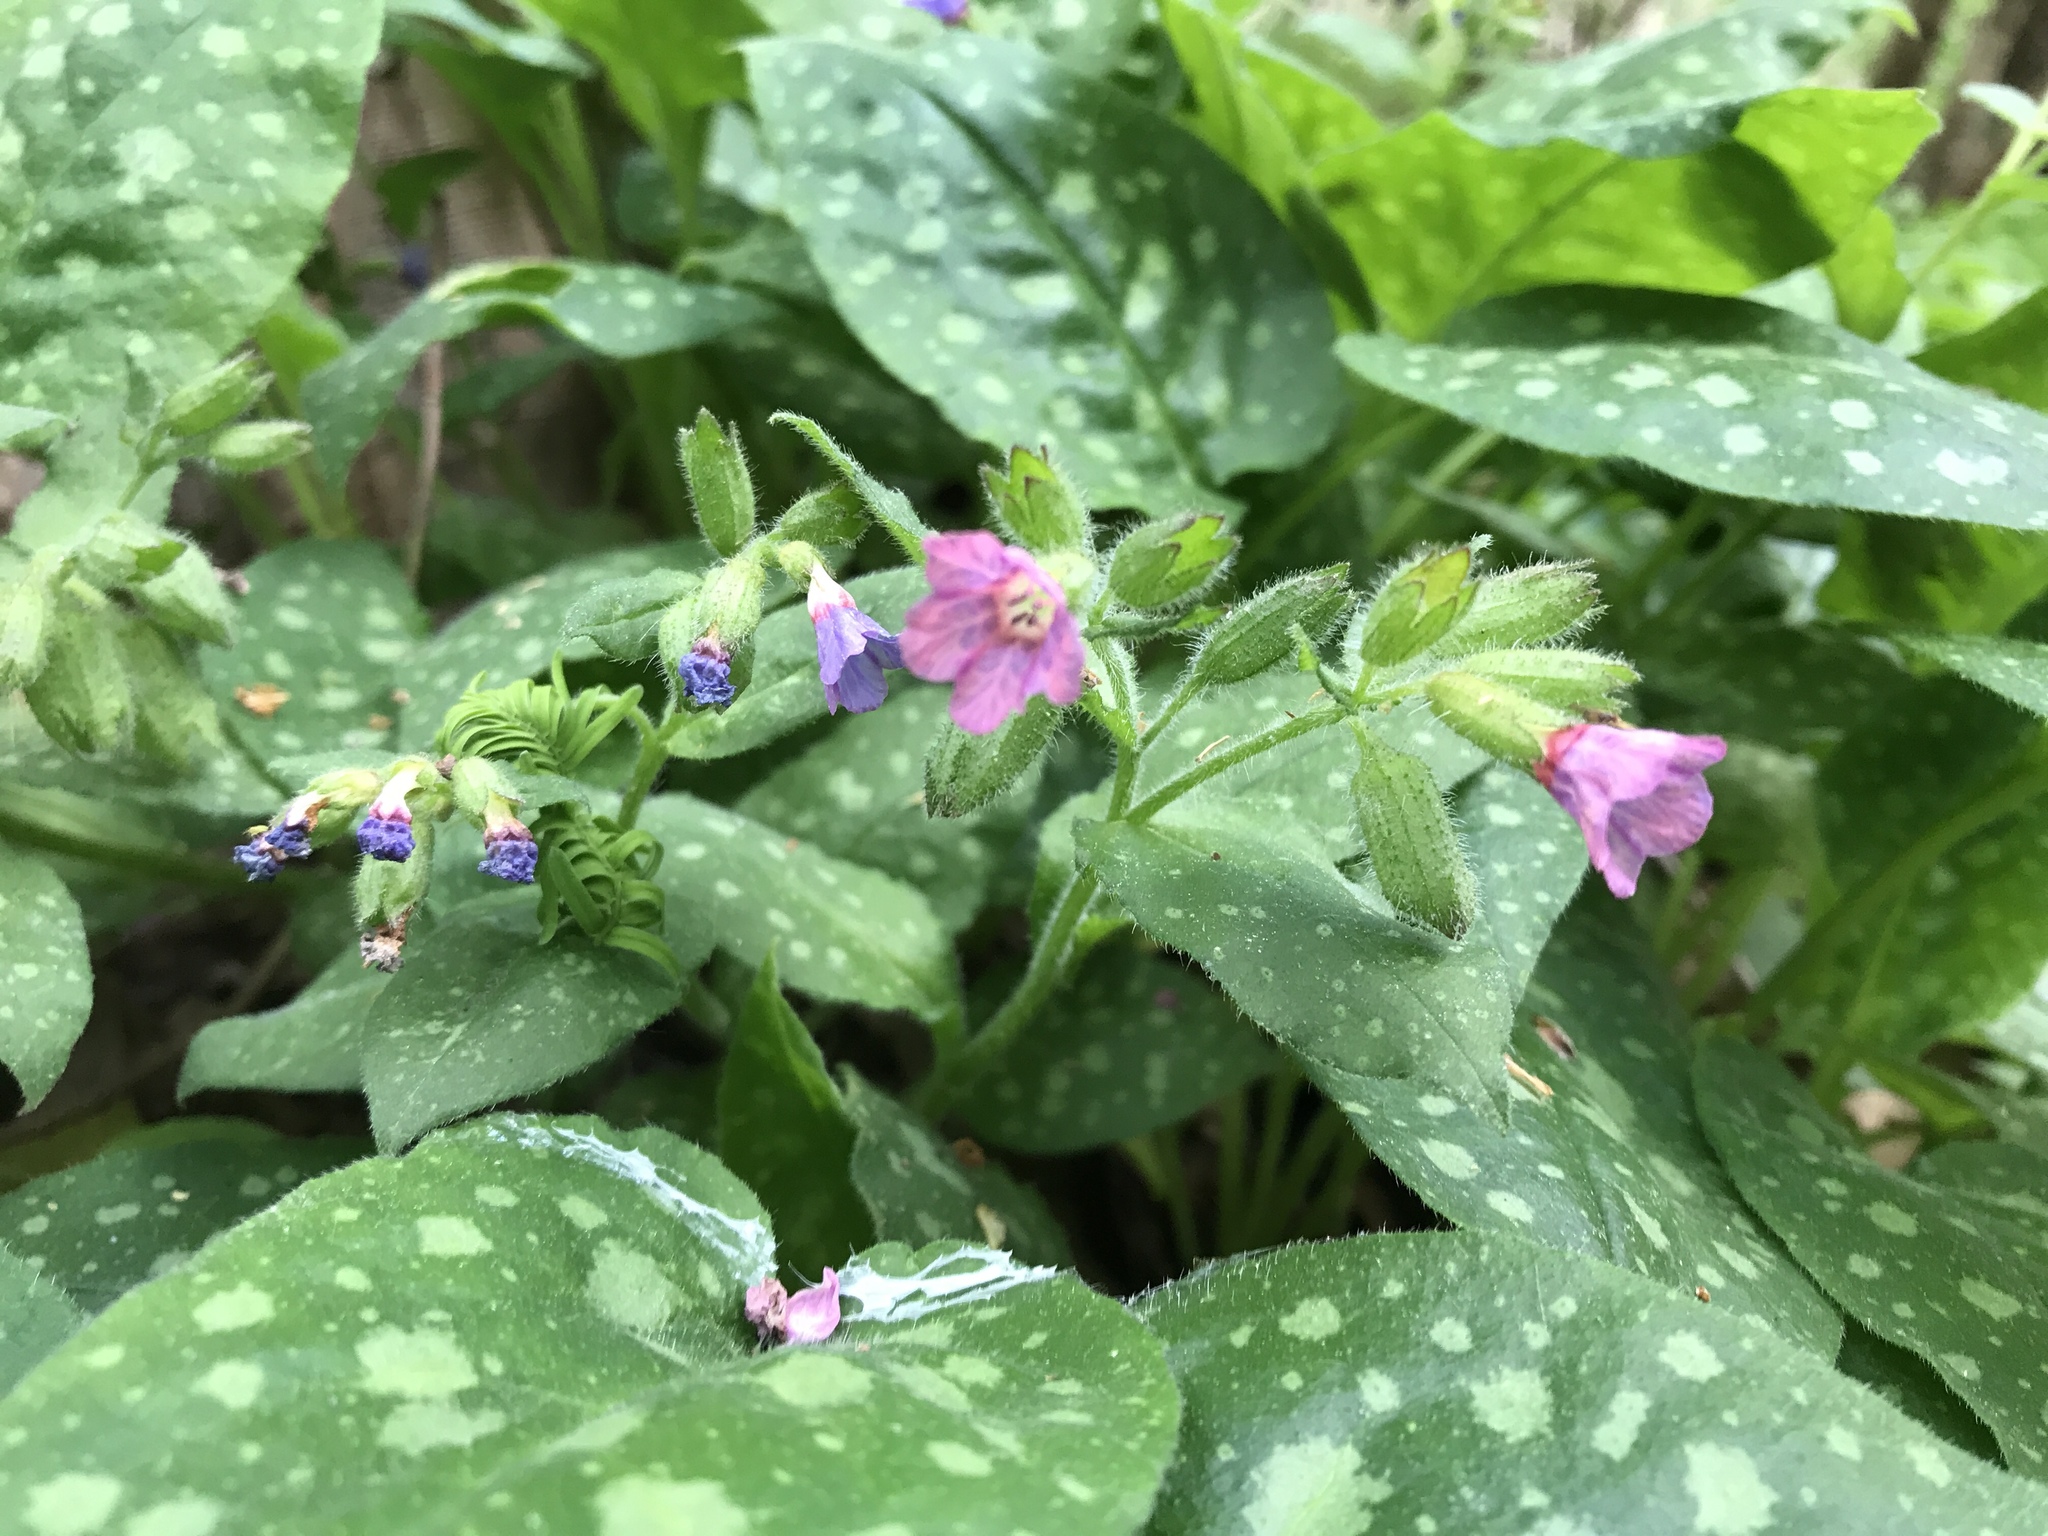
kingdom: Plantae
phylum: Tracheophyta
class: Magnoliopsida
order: Boraginales
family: Boraginaceae
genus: Pulmonaria
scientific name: Pulmonaria officinalis
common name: Lungwort
